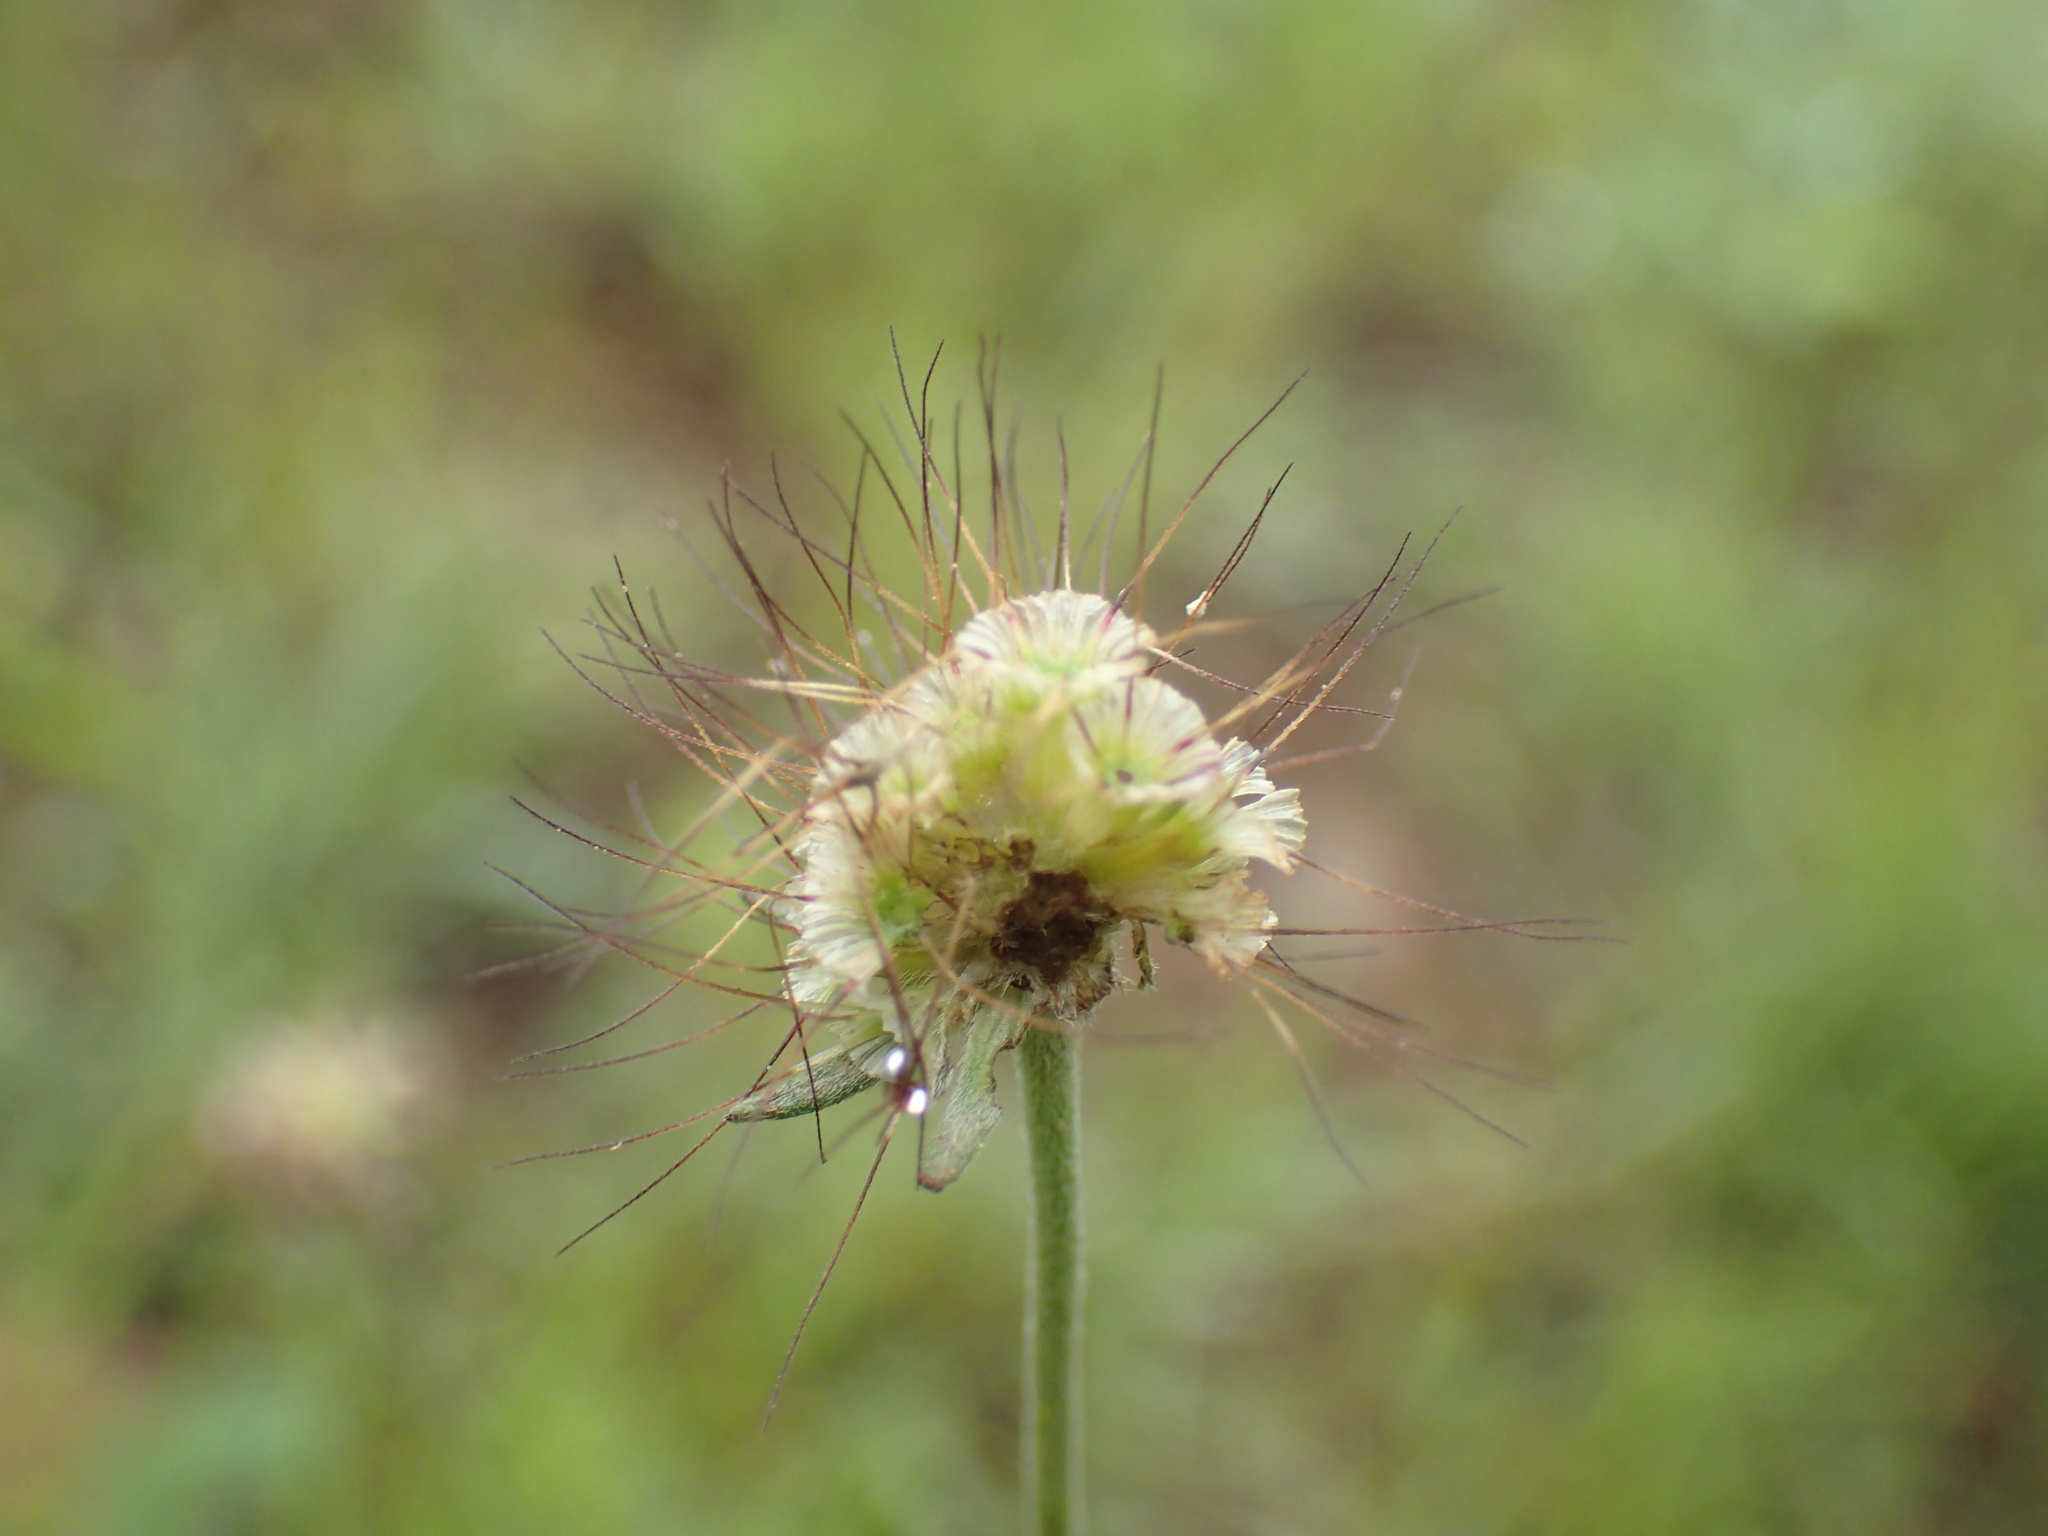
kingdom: Plantae
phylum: Tracheophyta
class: Magnoliopsida
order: Dipsacales
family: Caprifoliaceae
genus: Scabiosa
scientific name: Scabiosa columbaria
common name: Small scabious
